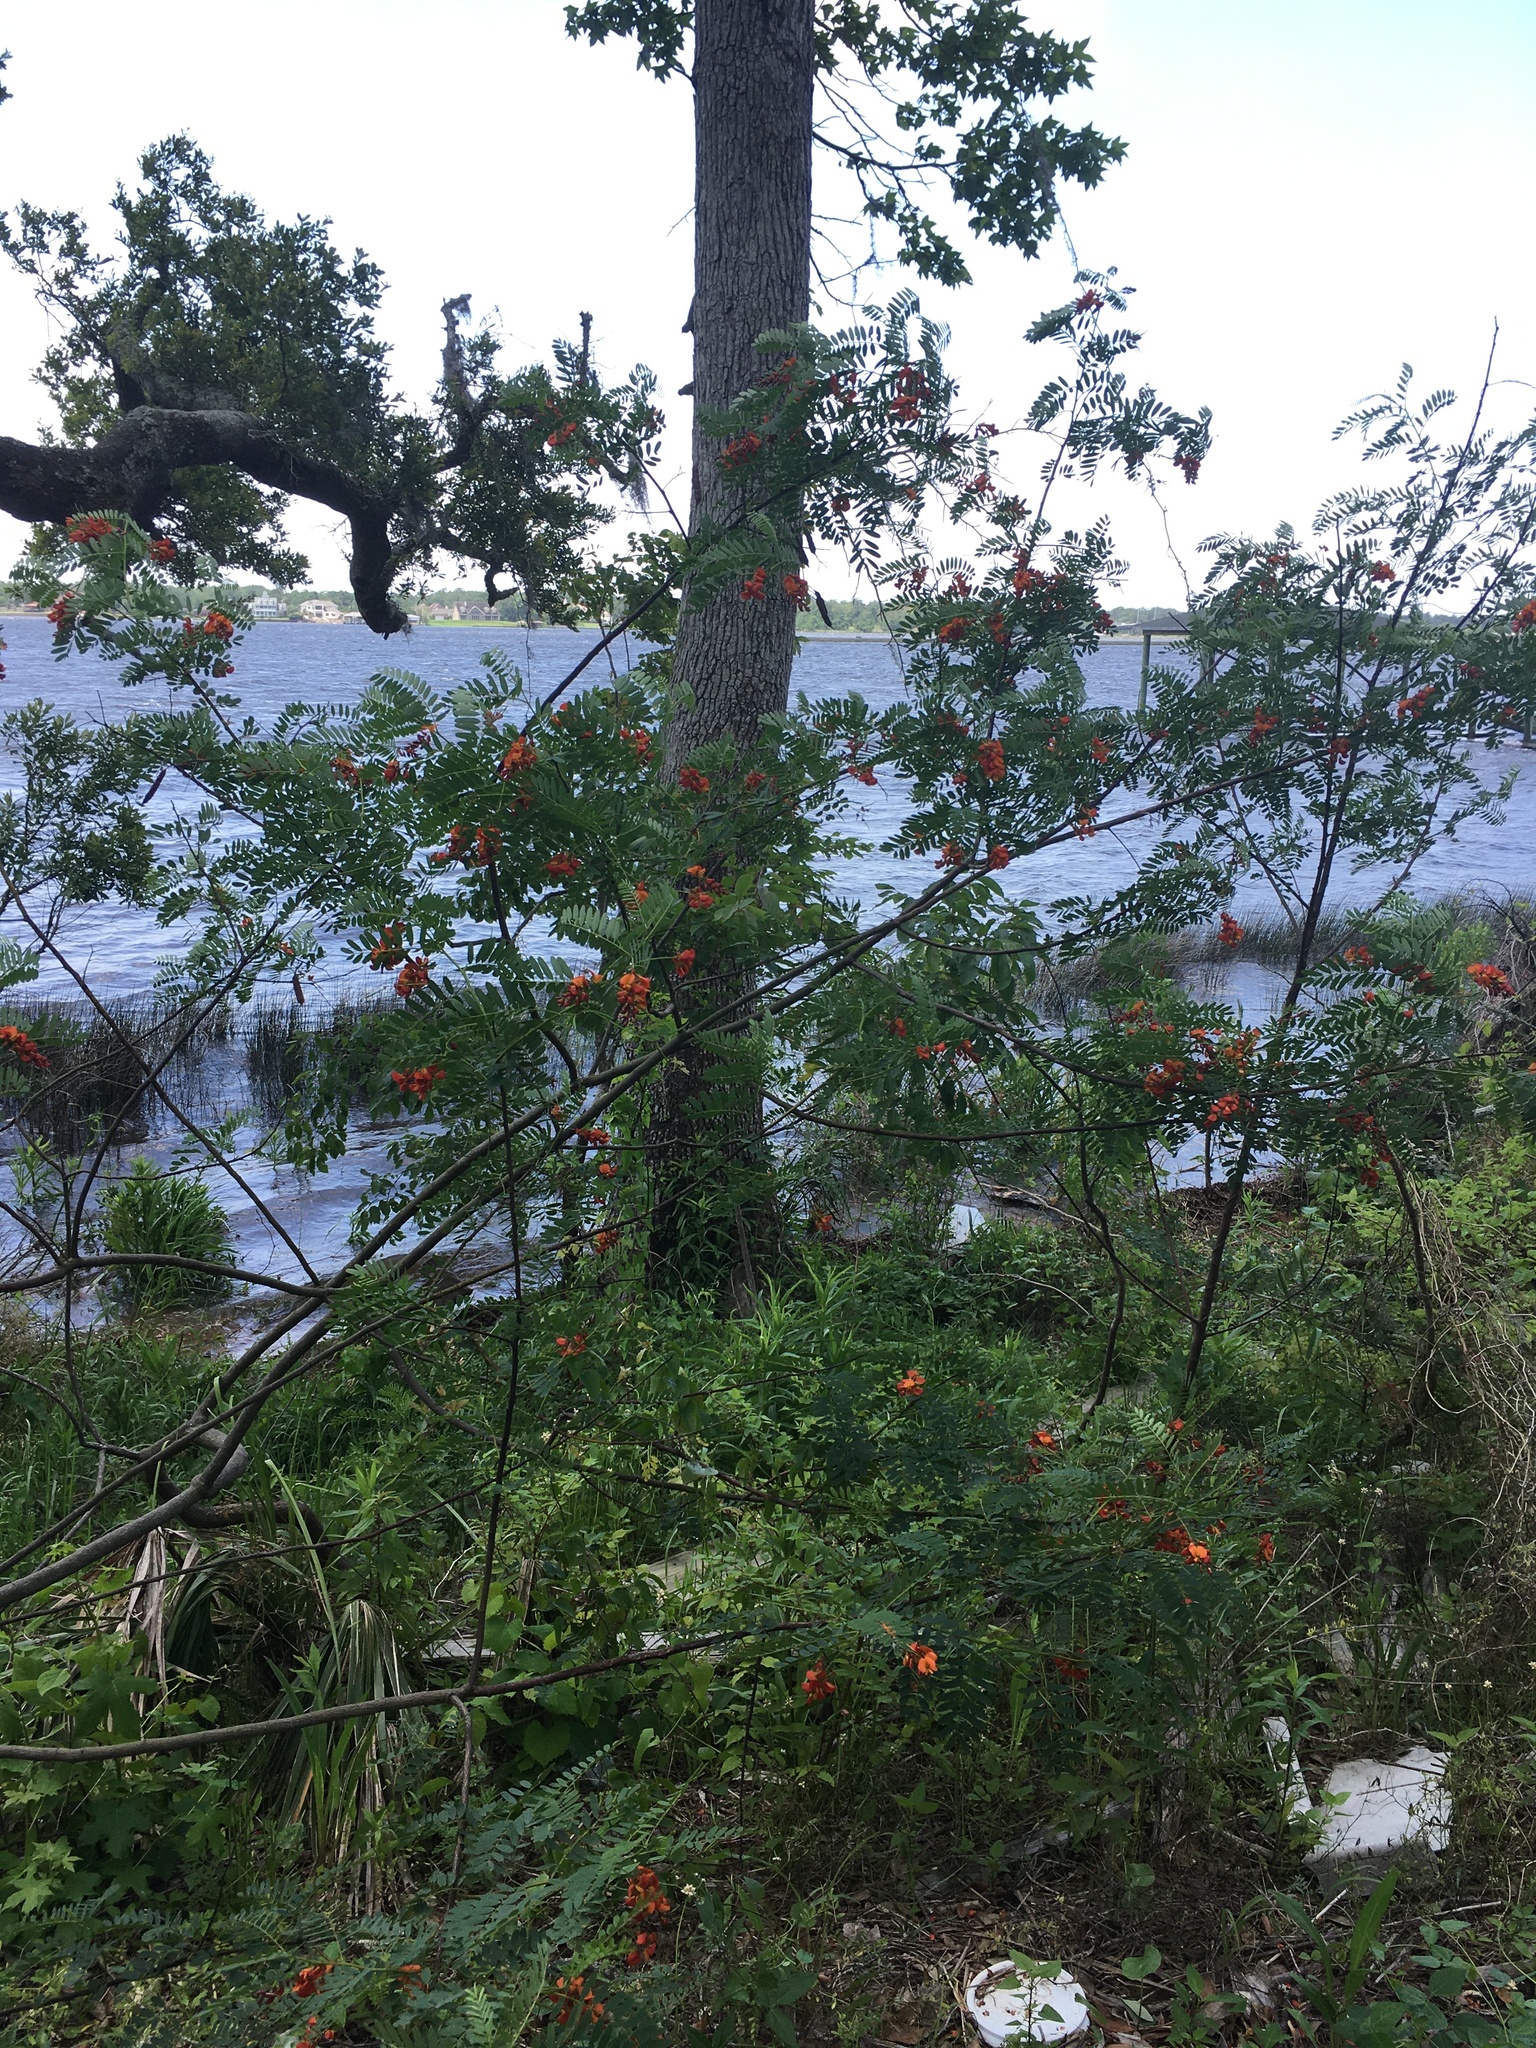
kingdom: Plantae
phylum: Tracheophyta
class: Magnoliopsida
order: Fabales
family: Fabaceae
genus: Sesbania
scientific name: Sesbania punicea
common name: Rattlebox
